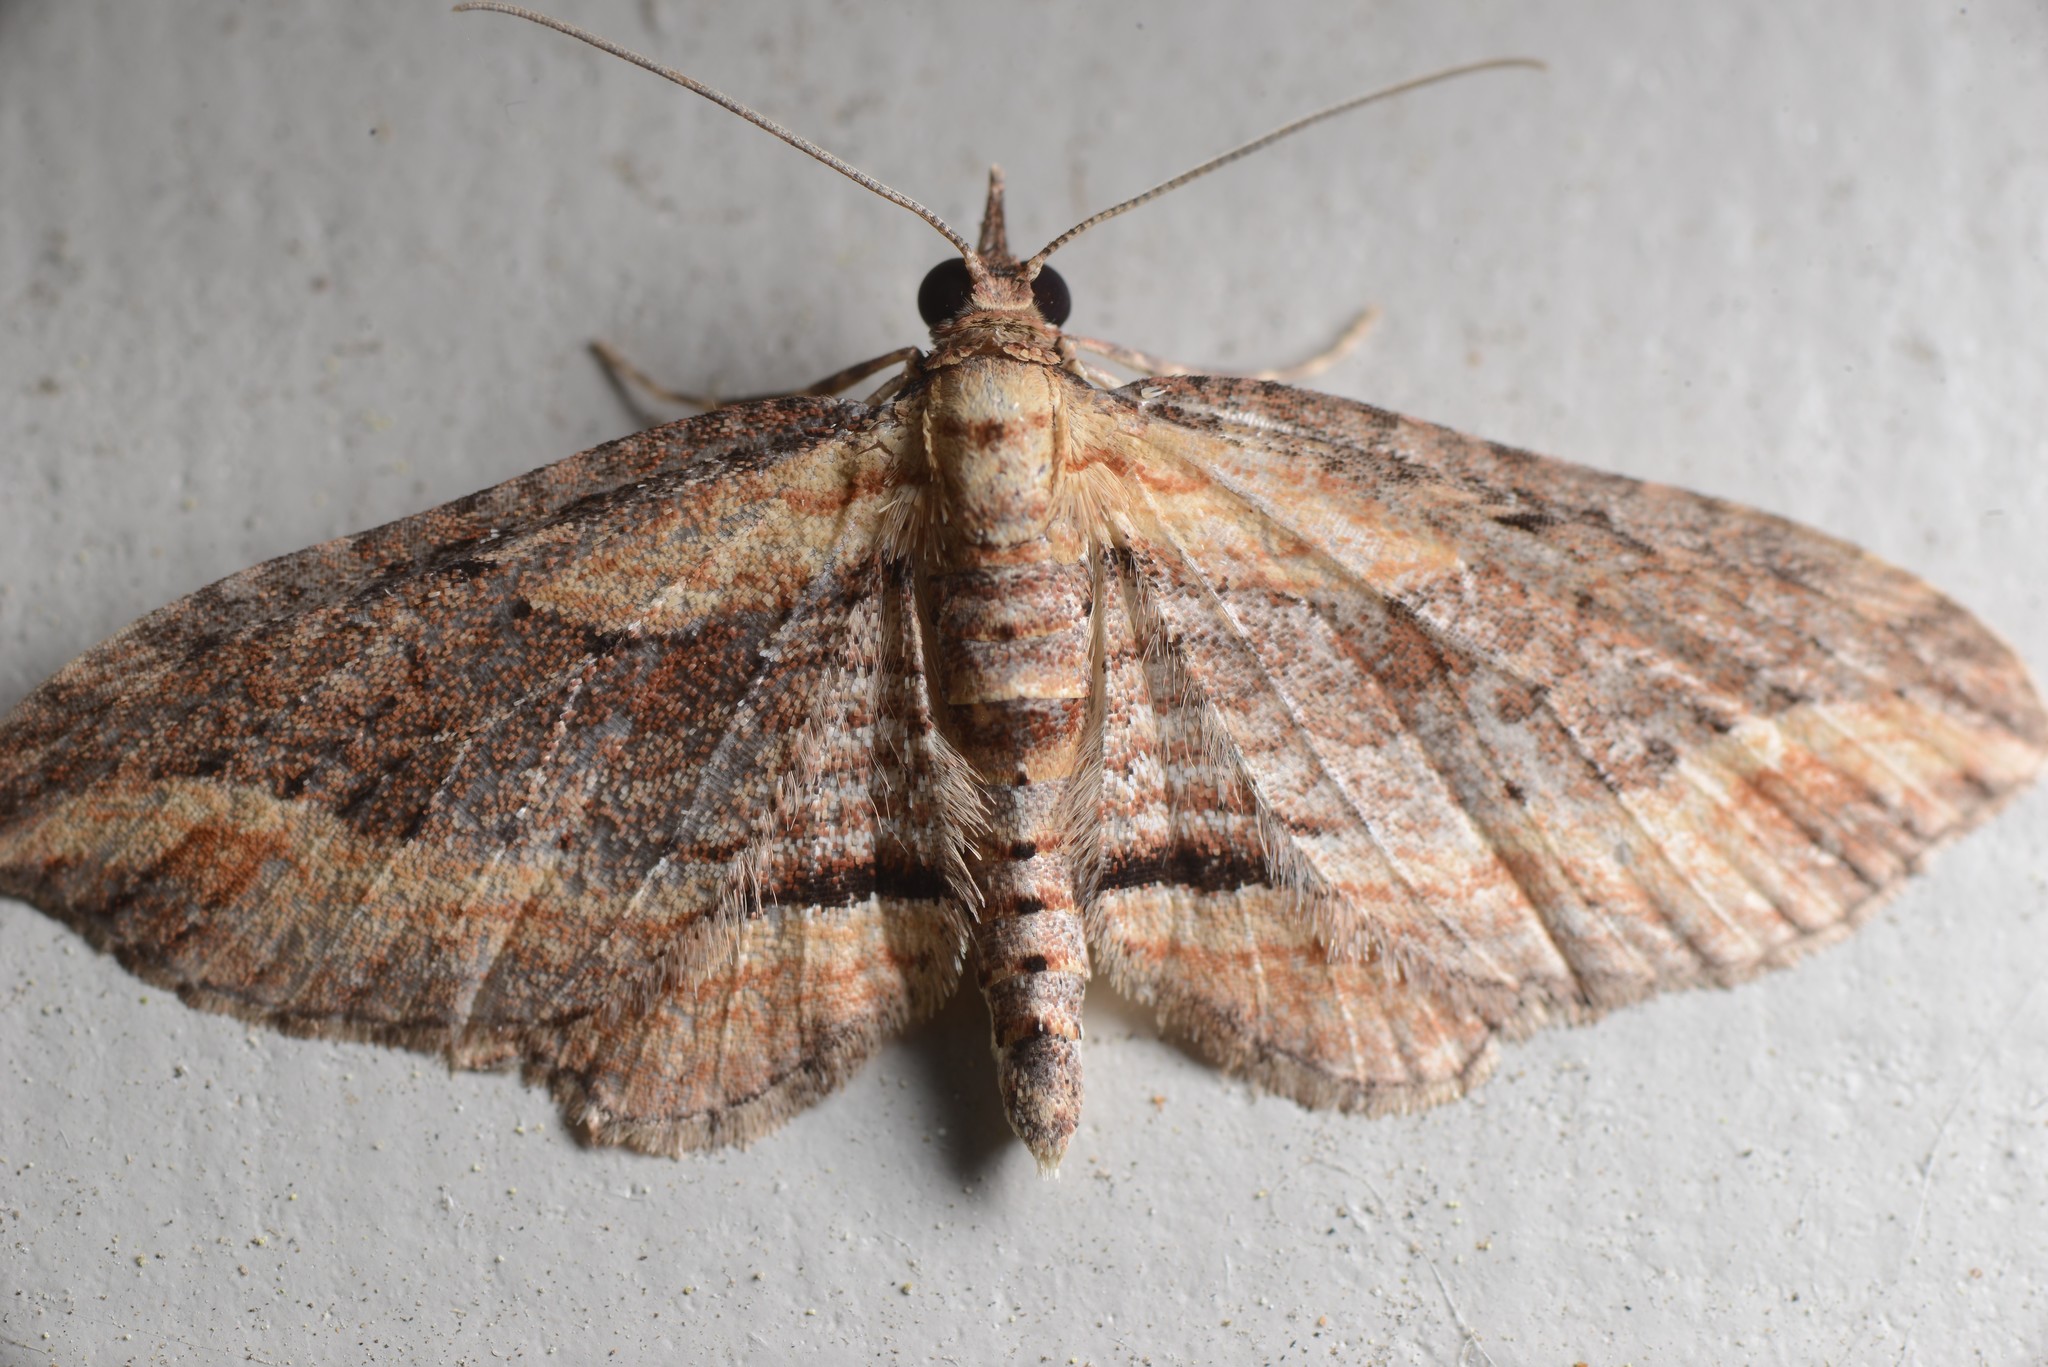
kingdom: Animalia
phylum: Arthropoda
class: Insecta
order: Lepidoptera
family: Geometridae
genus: Chloroclystis
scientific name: Chloroclystis filata
